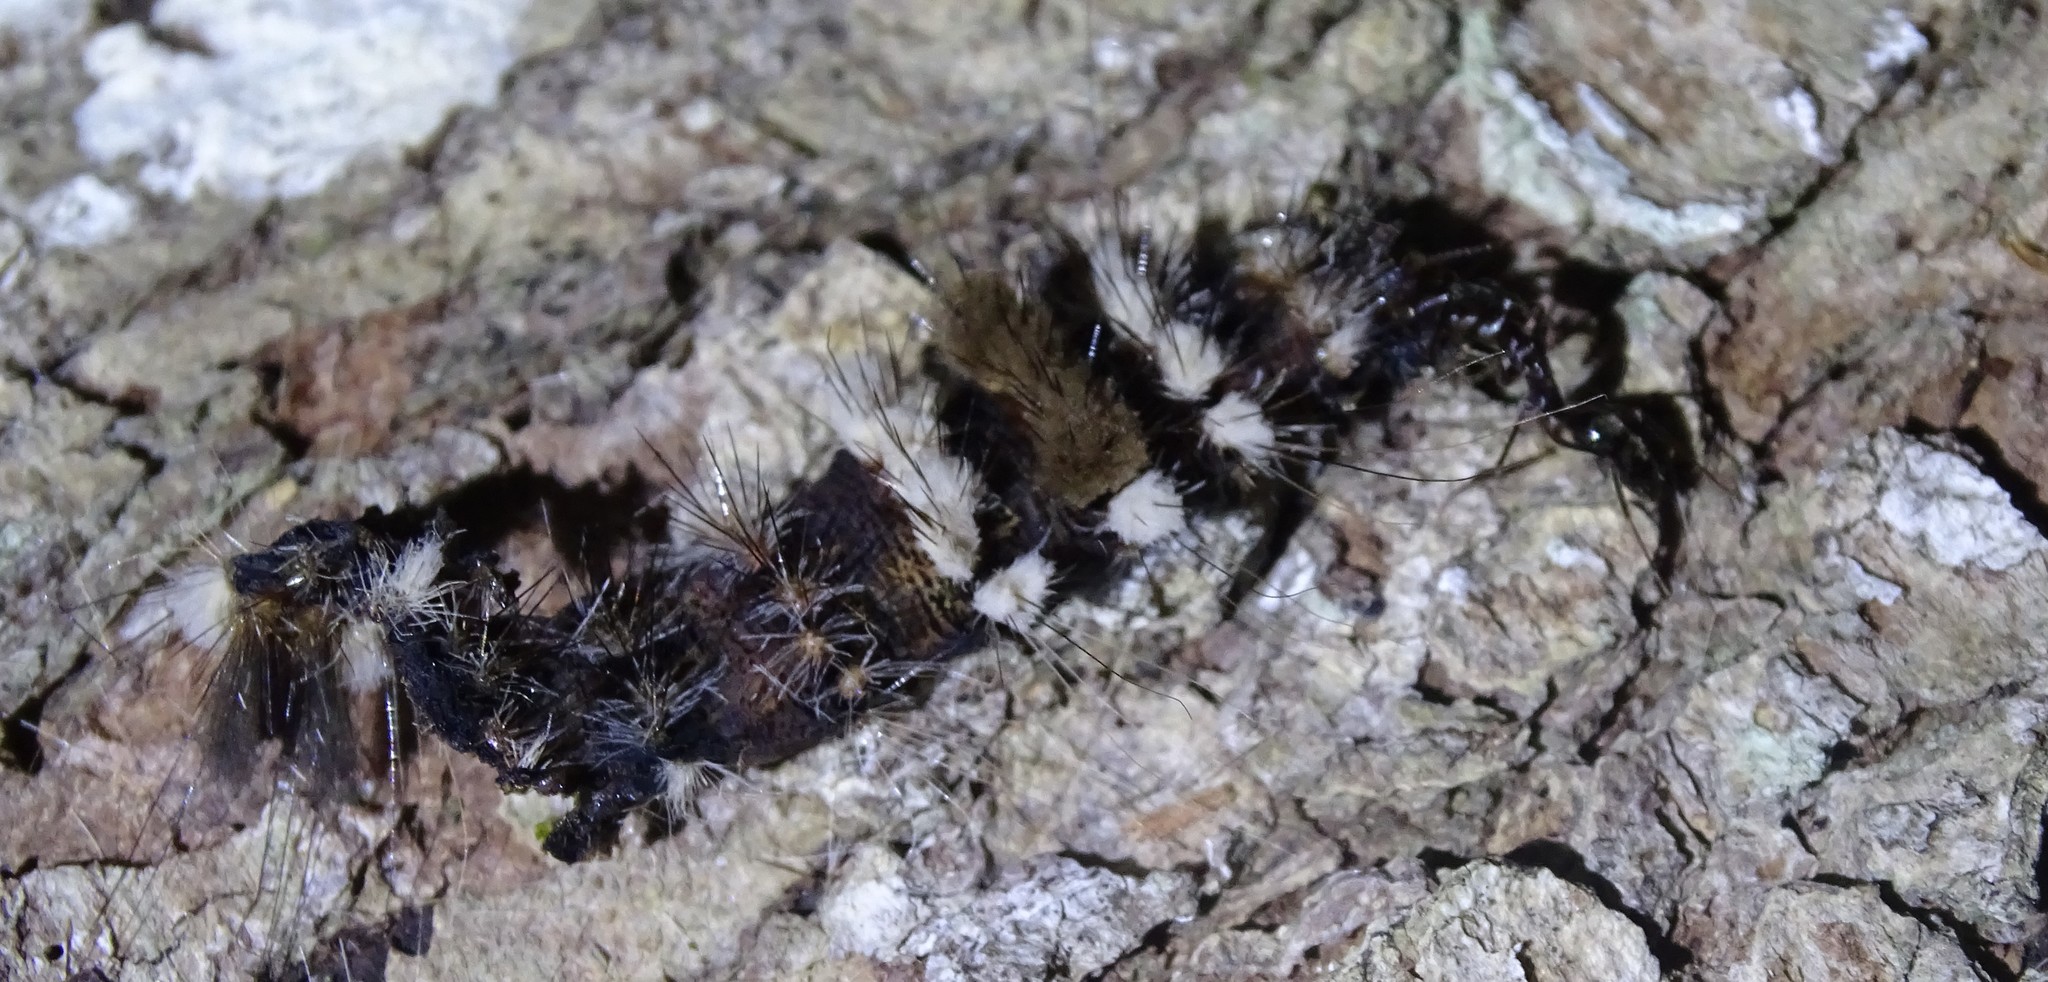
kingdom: Animalia
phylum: Arthropoda
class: Insecta
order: Lepidoptera
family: Noctuidae
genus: Acronicta
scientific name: Acronicta impleta
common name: Powdered dagger
